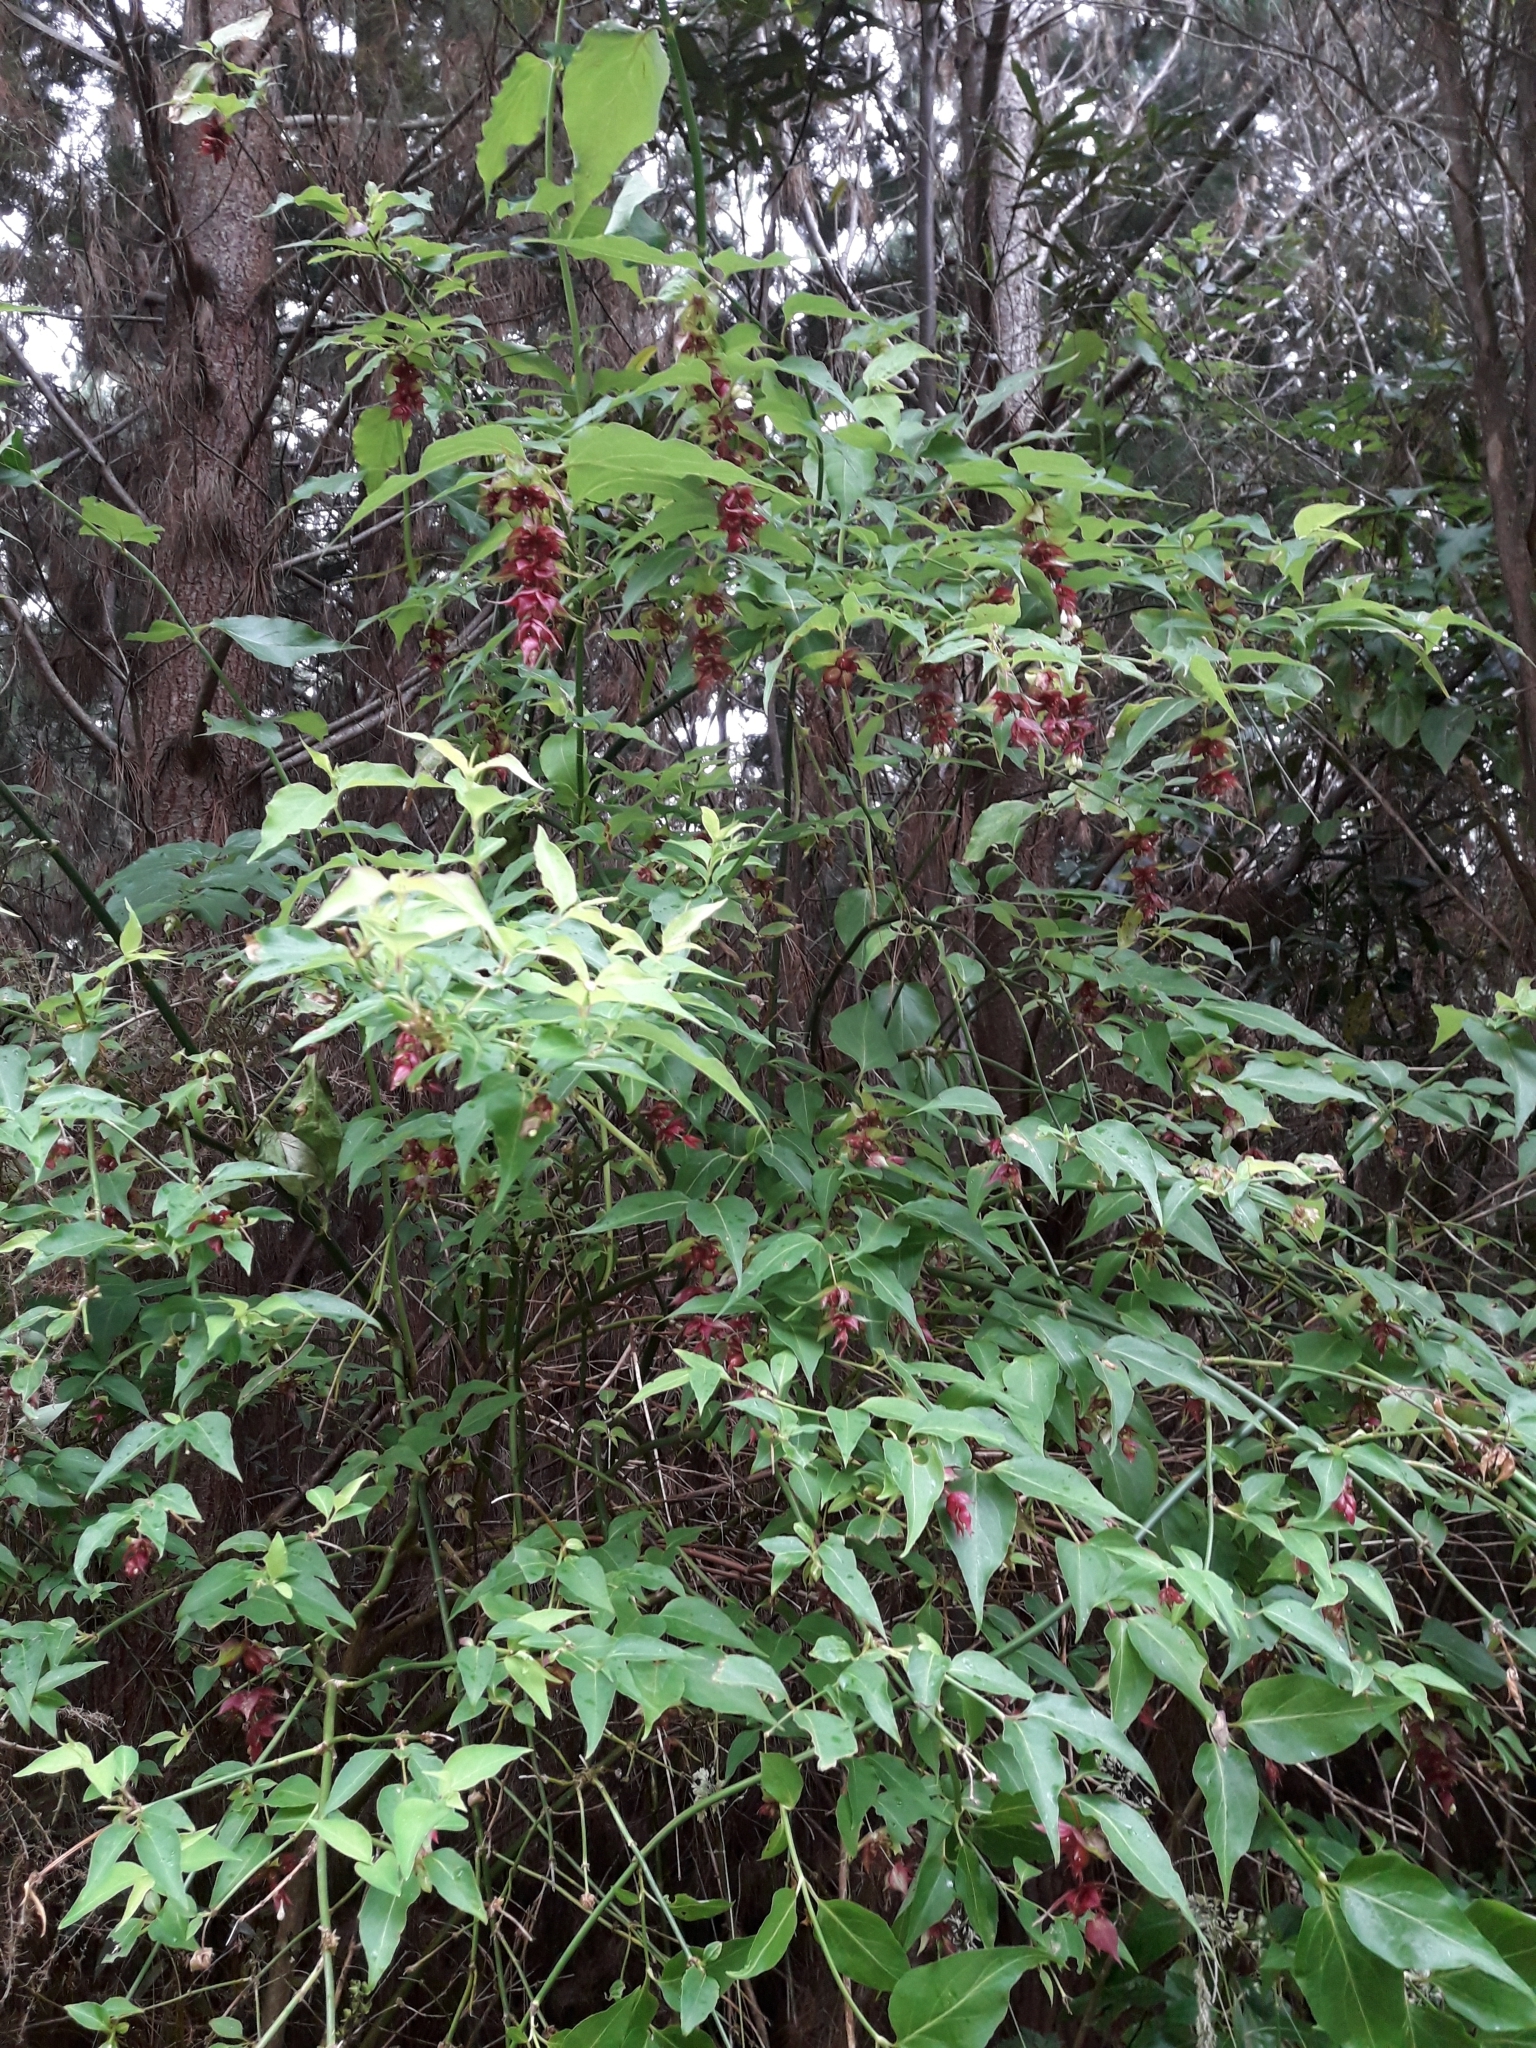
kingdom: Plantae
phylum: Tracheophyta
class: Magnoliopsida
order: Dipsacales
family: Caprifoliaceae
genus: Leycesteria
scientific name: Leycesteria formosa
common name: Himalayan honeysuckle
